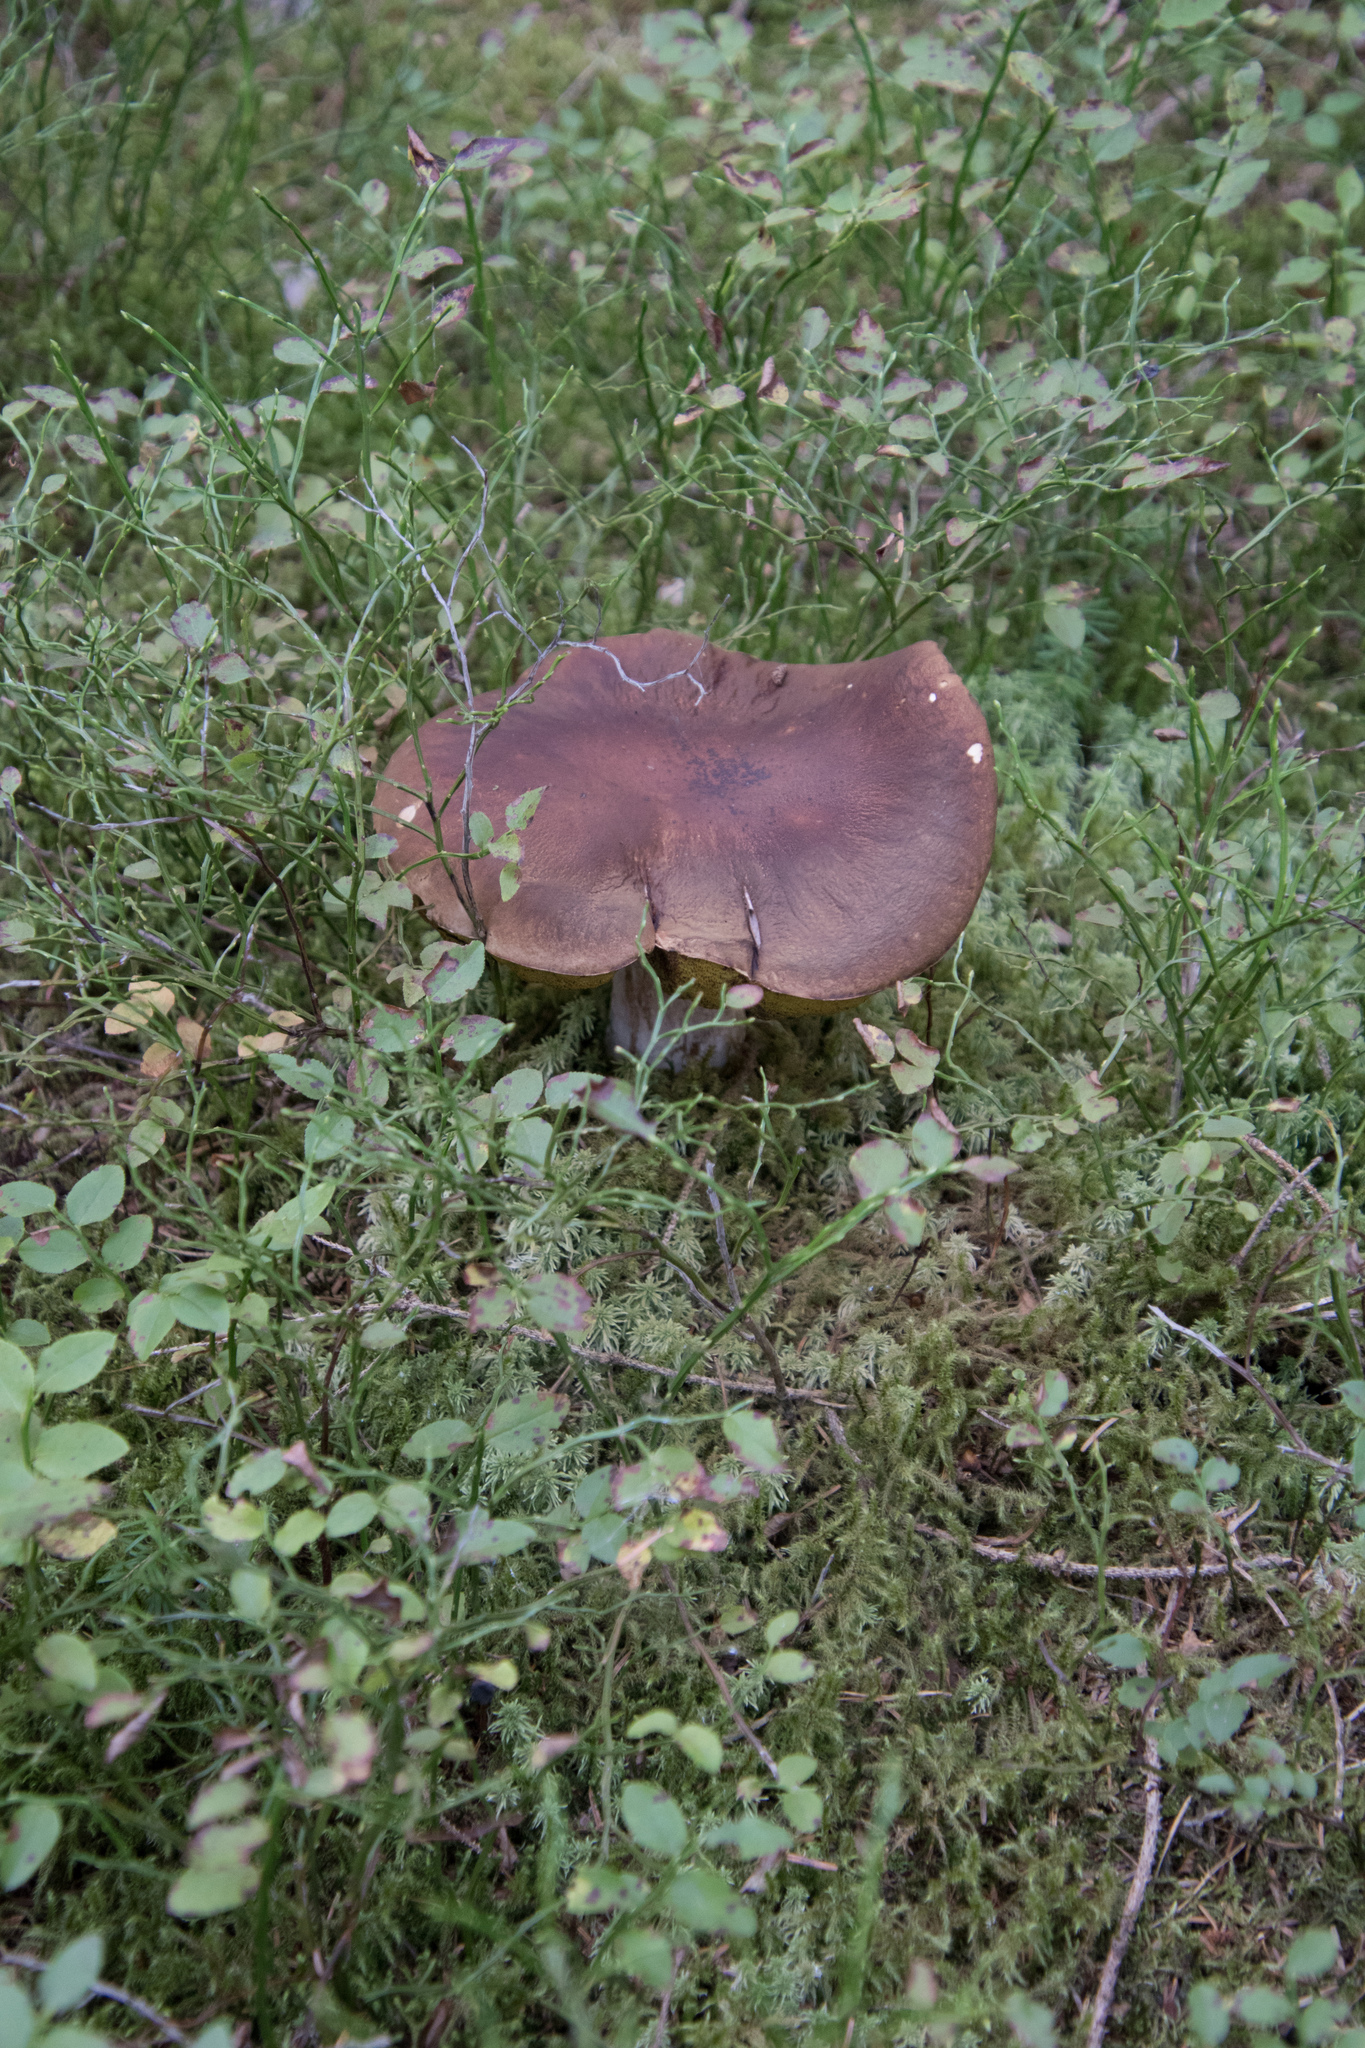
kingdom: Fungi
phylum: Basidiomycota
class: Agaricomycetes
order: Boletales
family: Boletaceae
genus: Boletus
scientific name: Boletus edulis
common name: Cep
